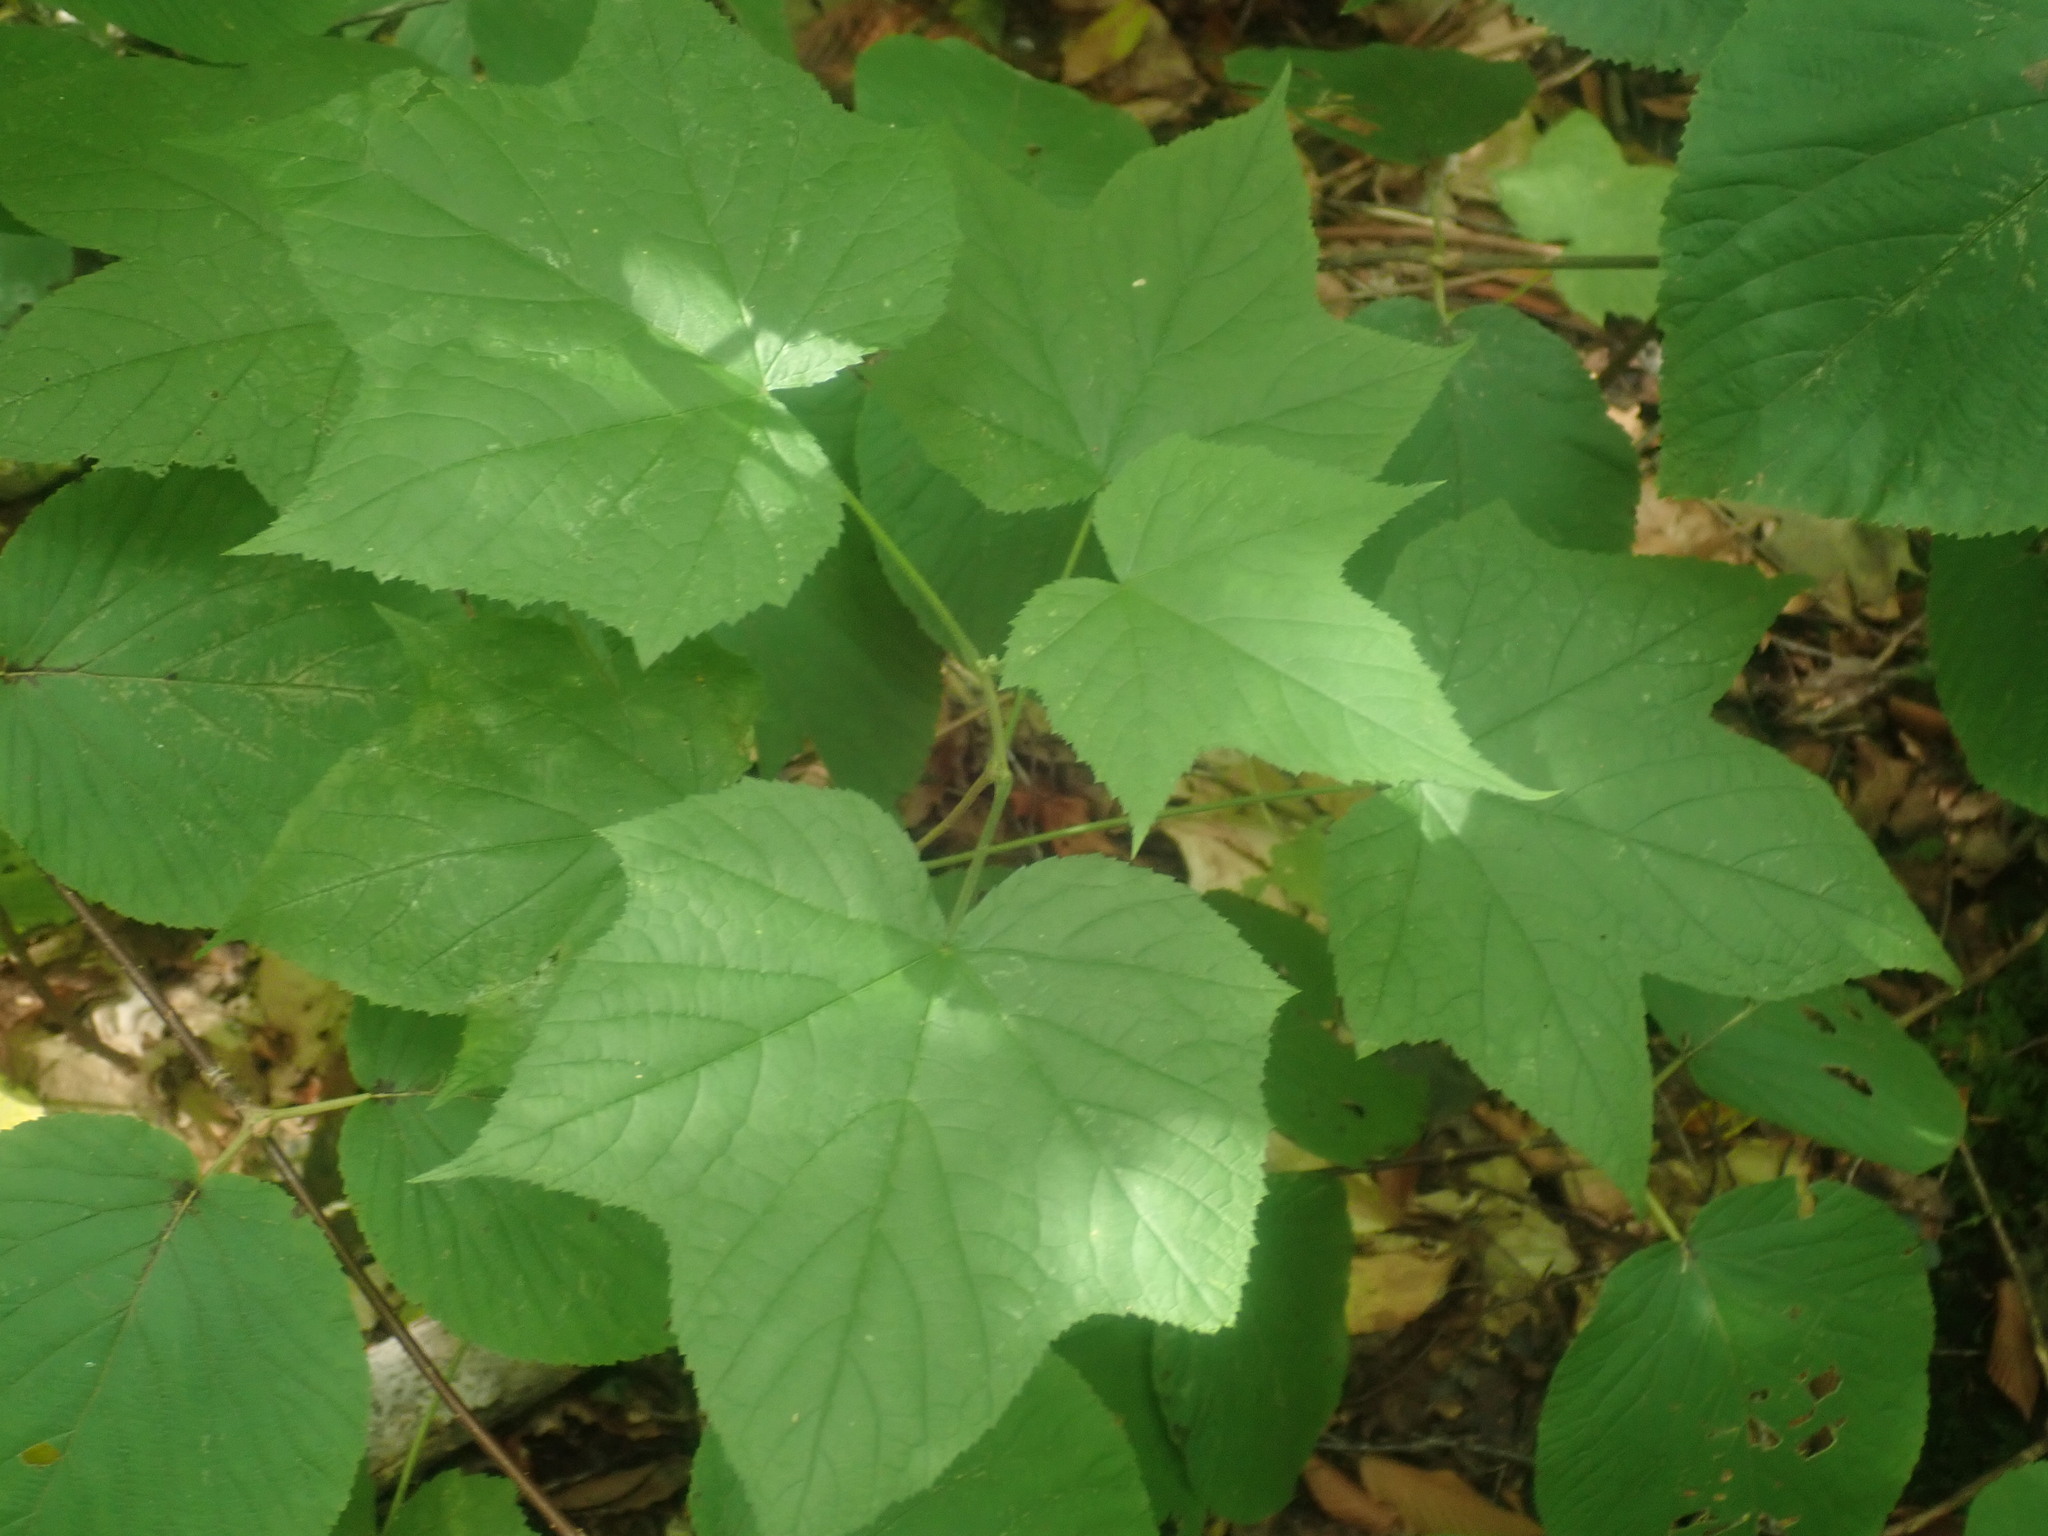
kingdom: Plantae
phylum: Tracheophyta
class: Magnoliopsida
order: Rosales
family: Rosaceae
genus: Rubus
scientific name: Rubus odoratus
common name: Purple-flowered raspberry
